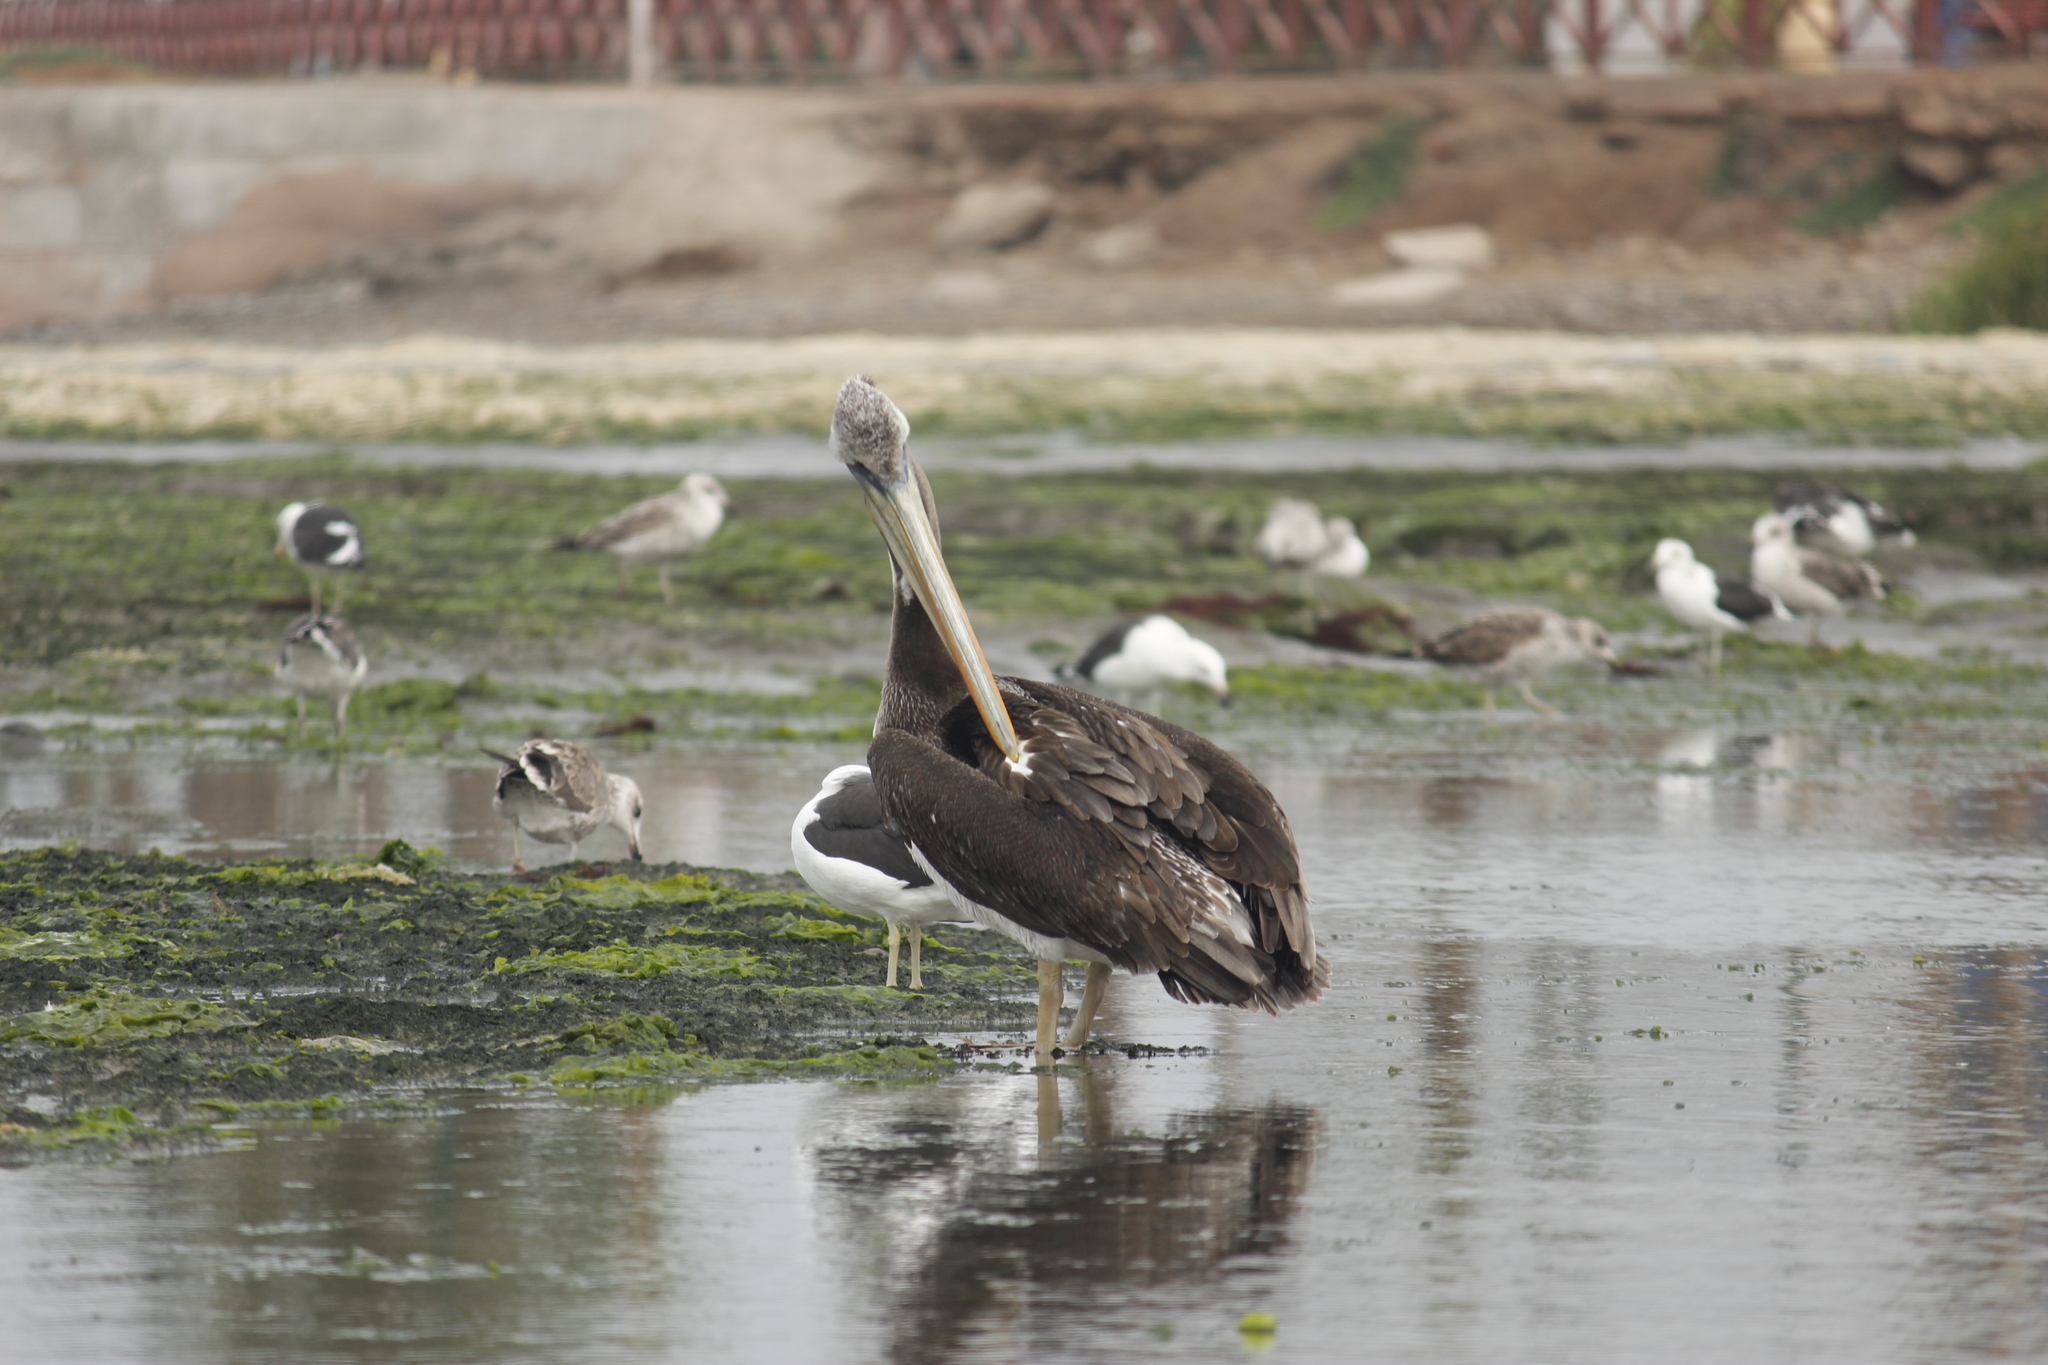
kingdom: Animalia
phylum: Chordata
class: Aves
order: Pelecaniformes
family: Pelecanidae
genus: Pelecanus
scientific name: Pelecanus thagus
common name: Peruvian pelican
